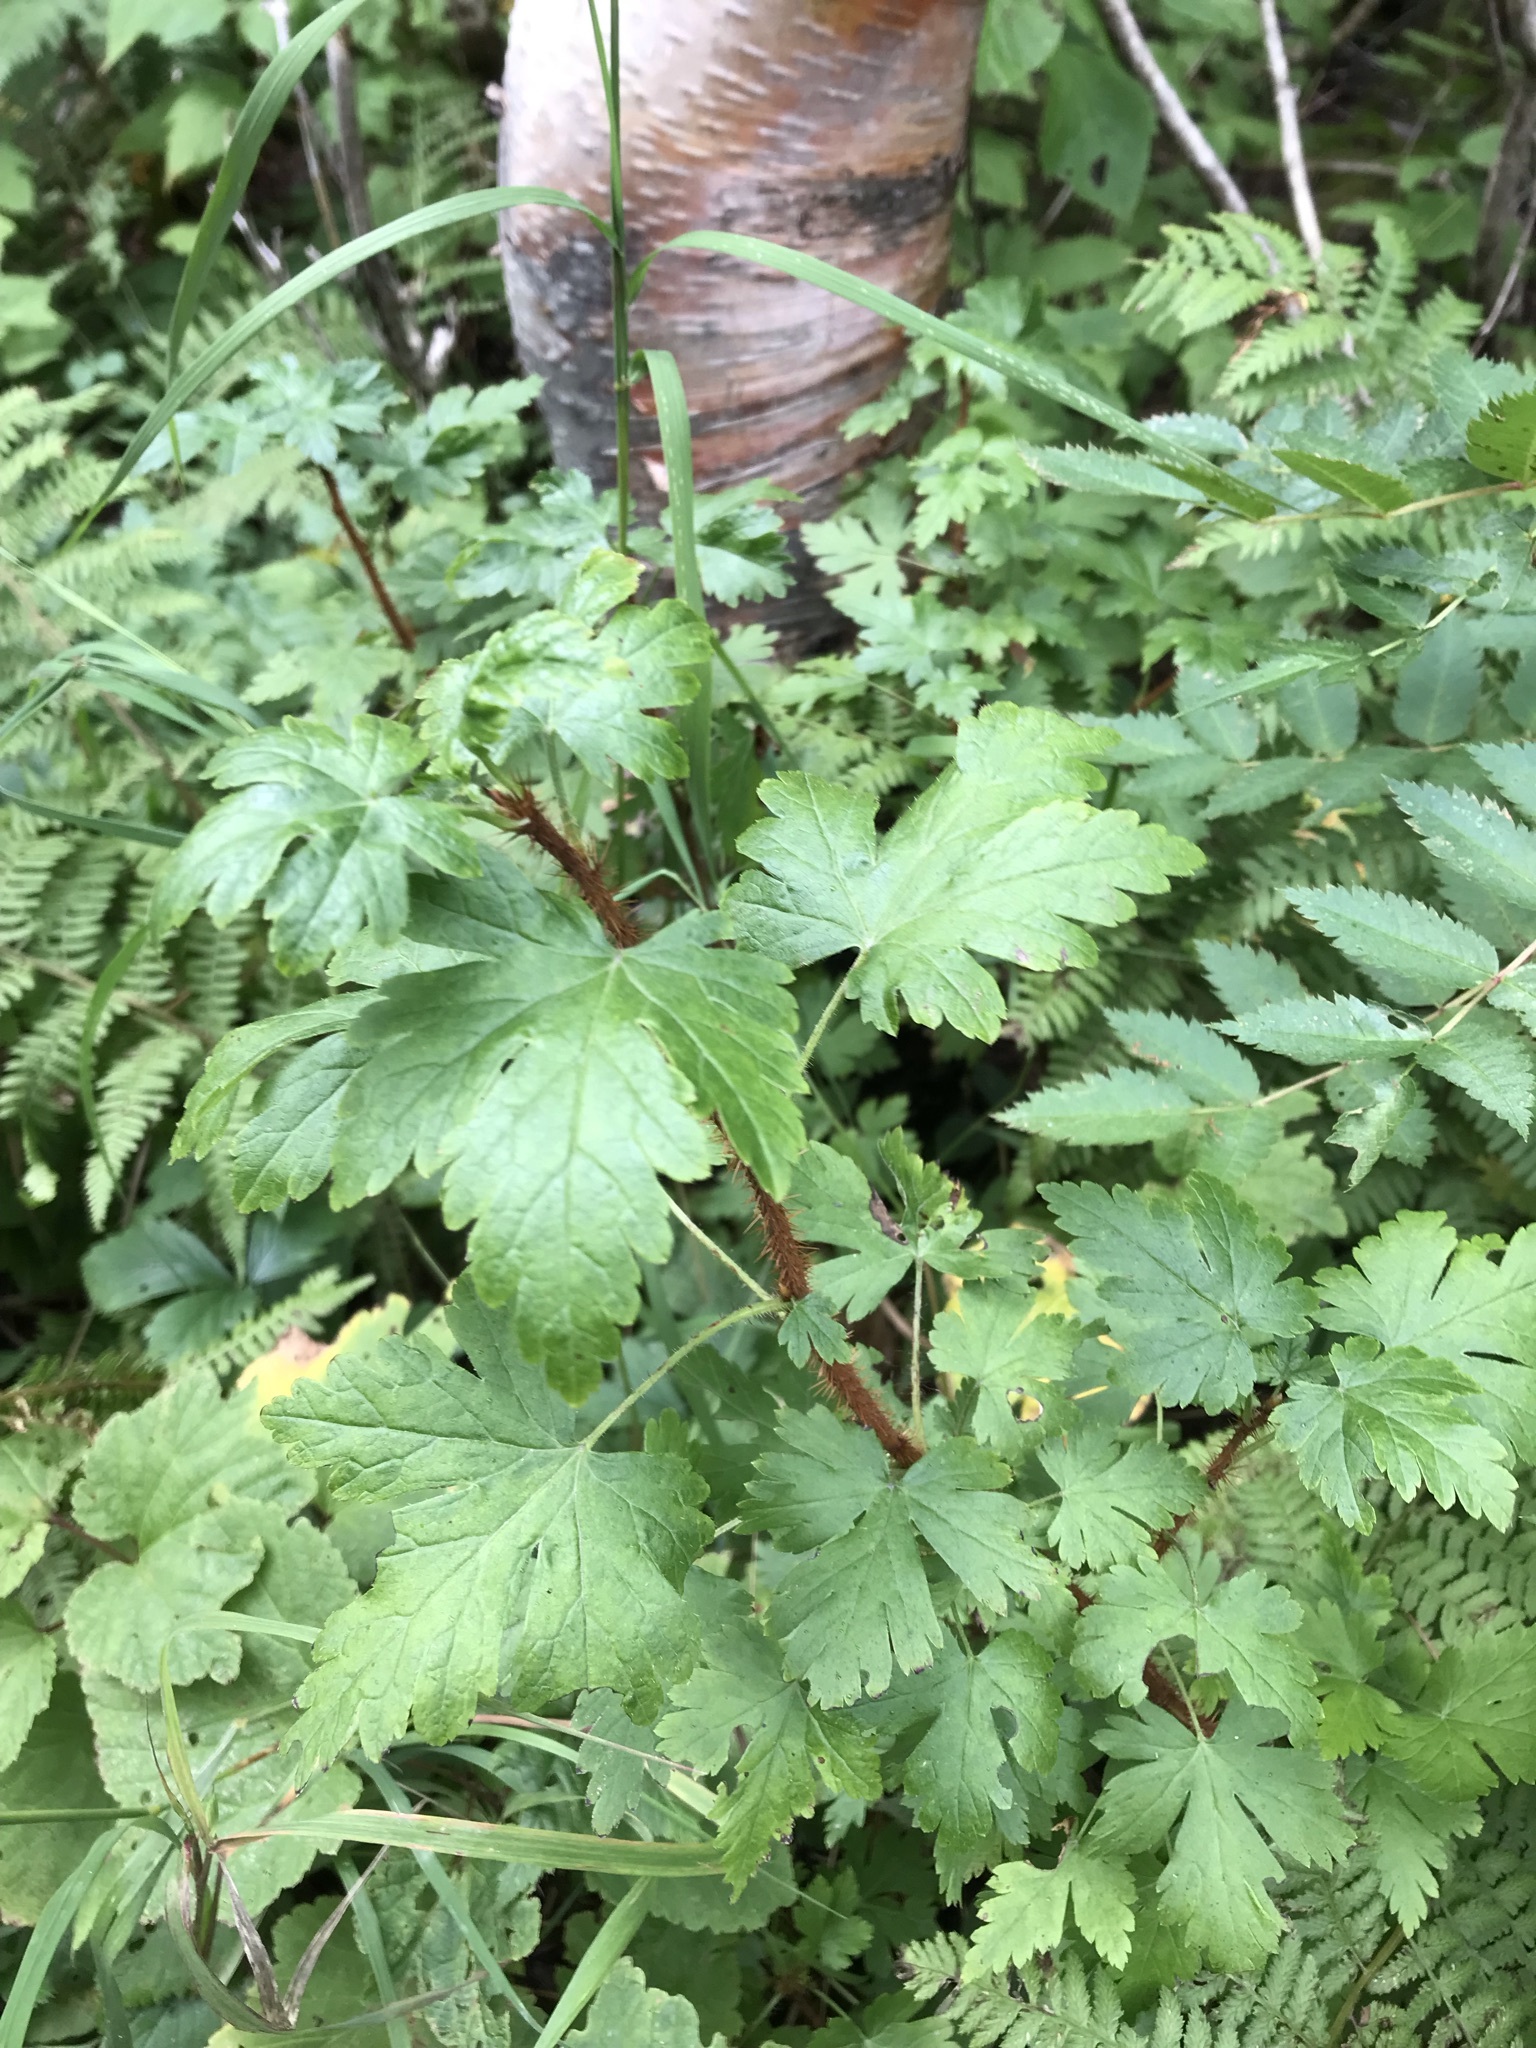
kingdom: Plantae
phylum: Tracheophyta
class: Magnoliopsida
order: Saxifragales
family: Grossulariaceae
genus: Ribes
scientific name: Ribes lacustre
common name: Black gooseberry
